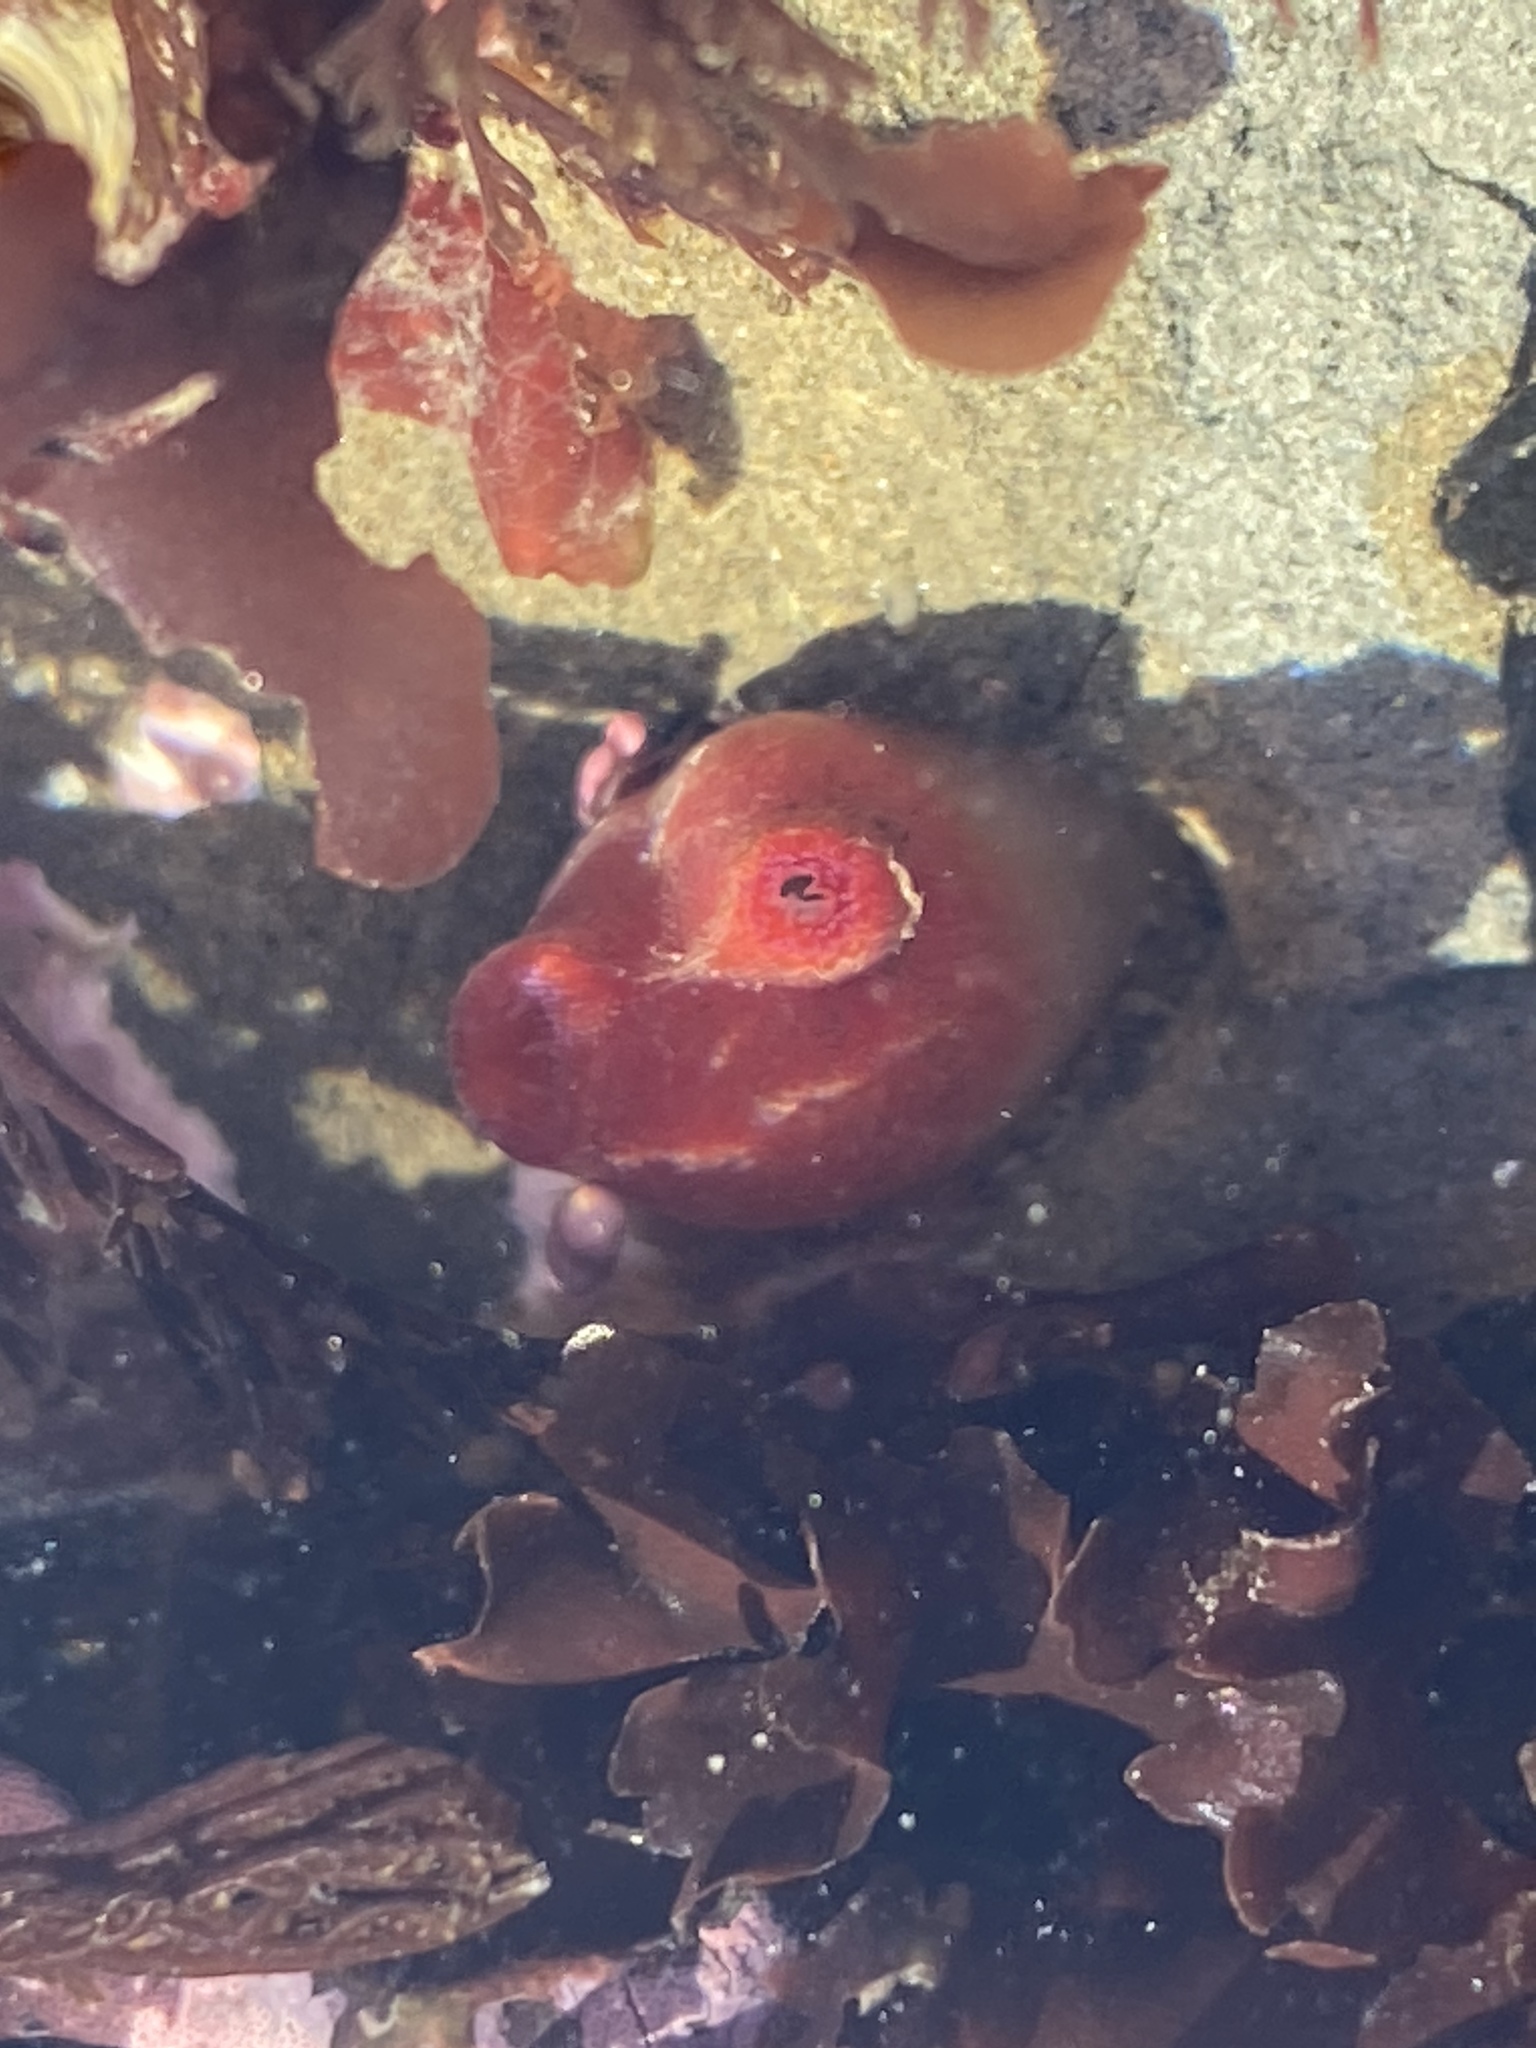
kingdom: Animalia
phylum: Mollusca
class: Bivalvia
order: Adapedonta
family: Hiatellidae
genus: Hiatella
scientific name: Hiatella arctica
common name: Arctic hiatella
